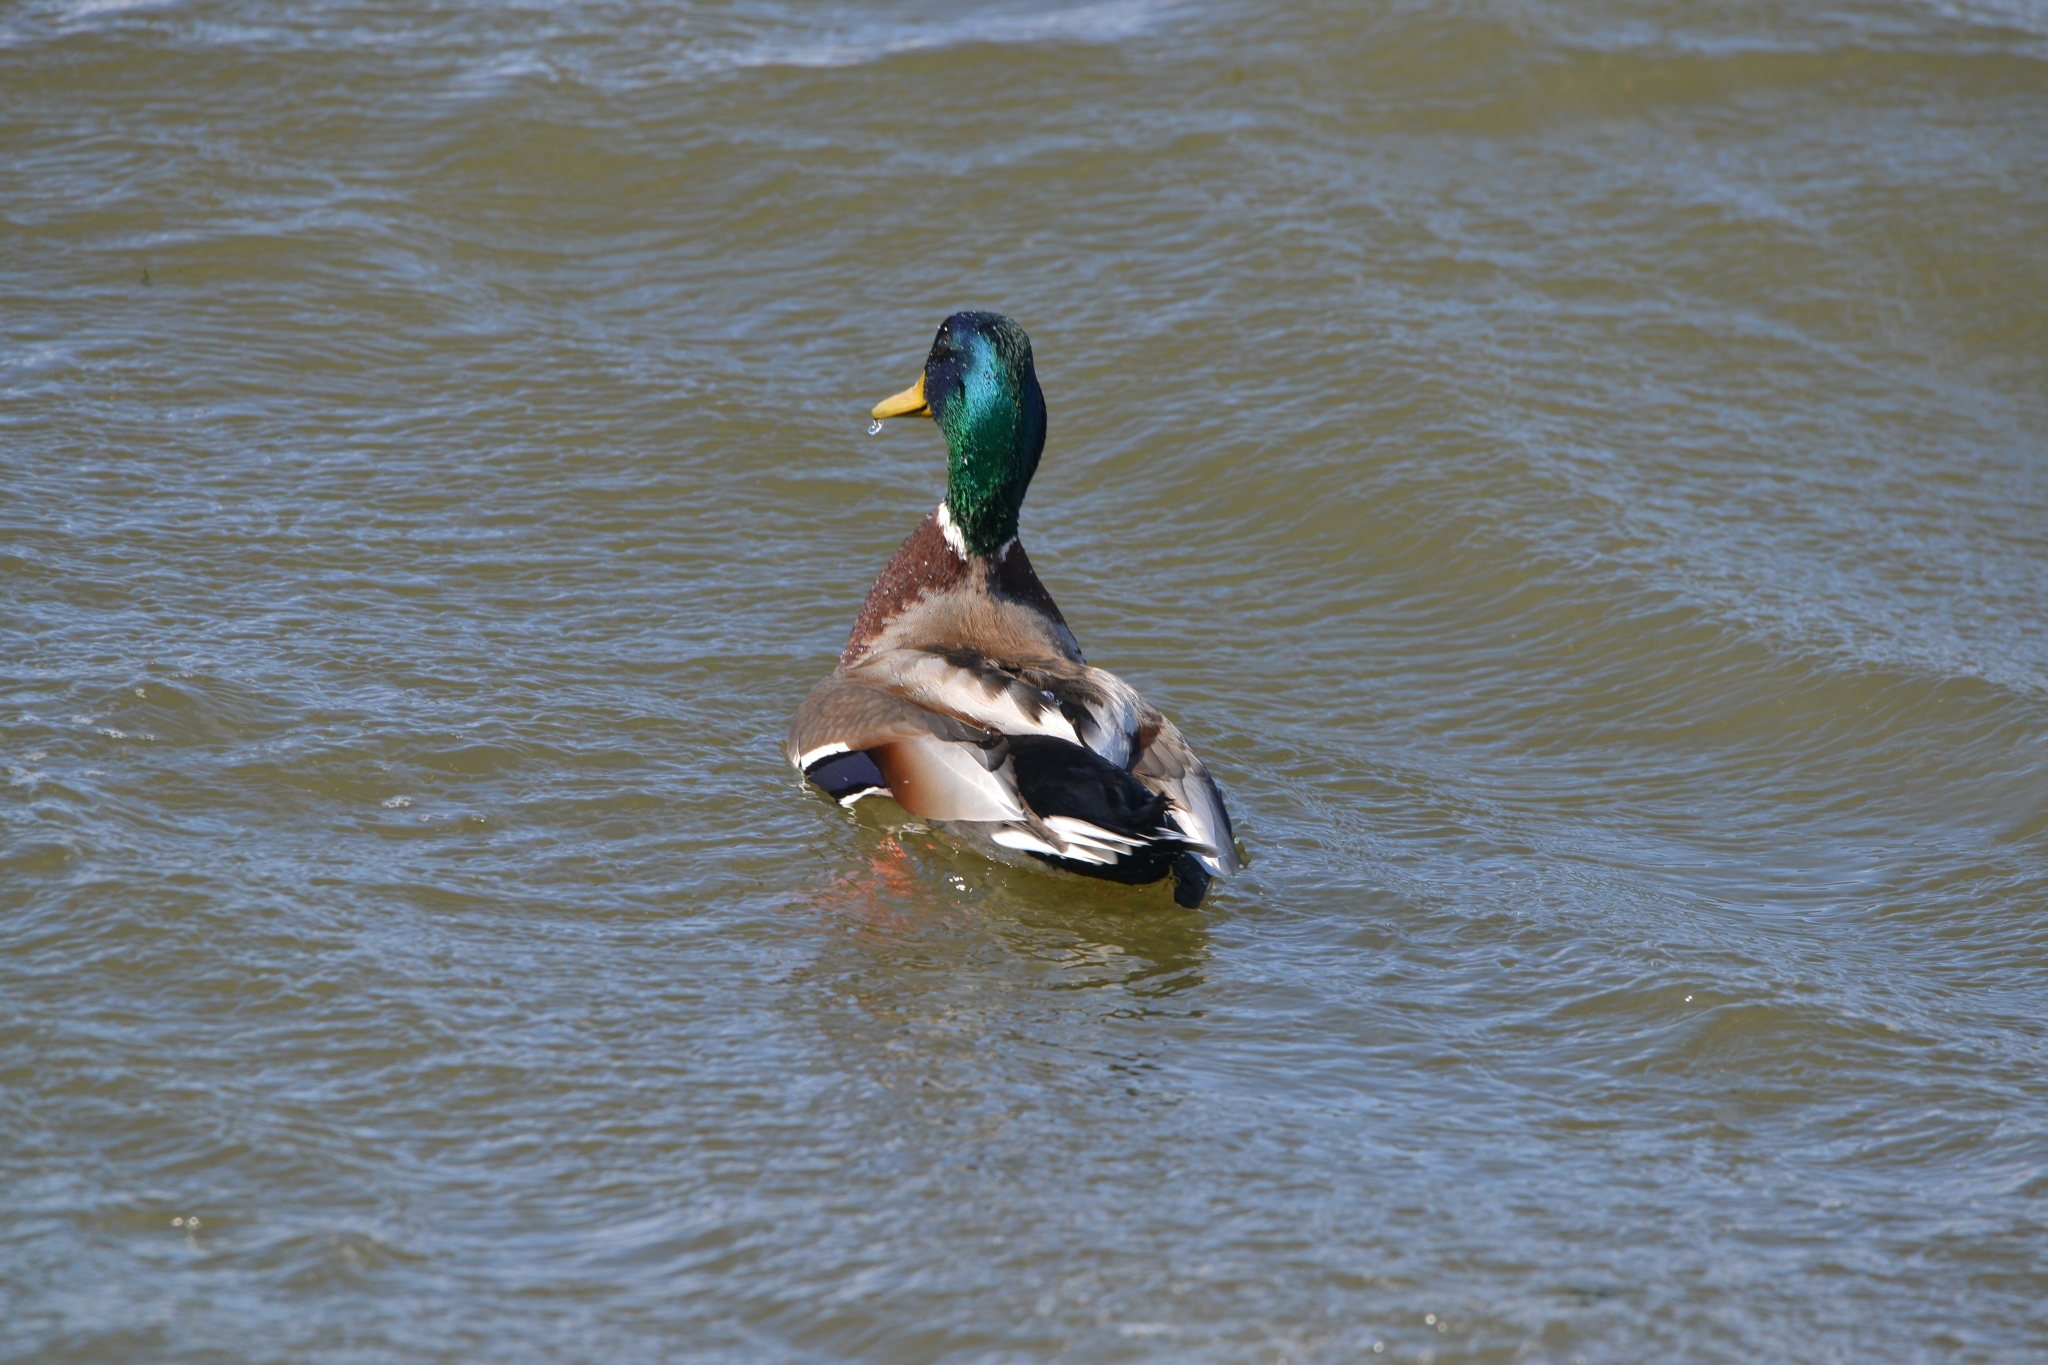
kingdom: Animalia
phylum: Chordata
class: Aves
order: Anseriformes
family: Anatidae
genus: Anas
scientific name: Anas platyrhynchos
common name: Mallard
